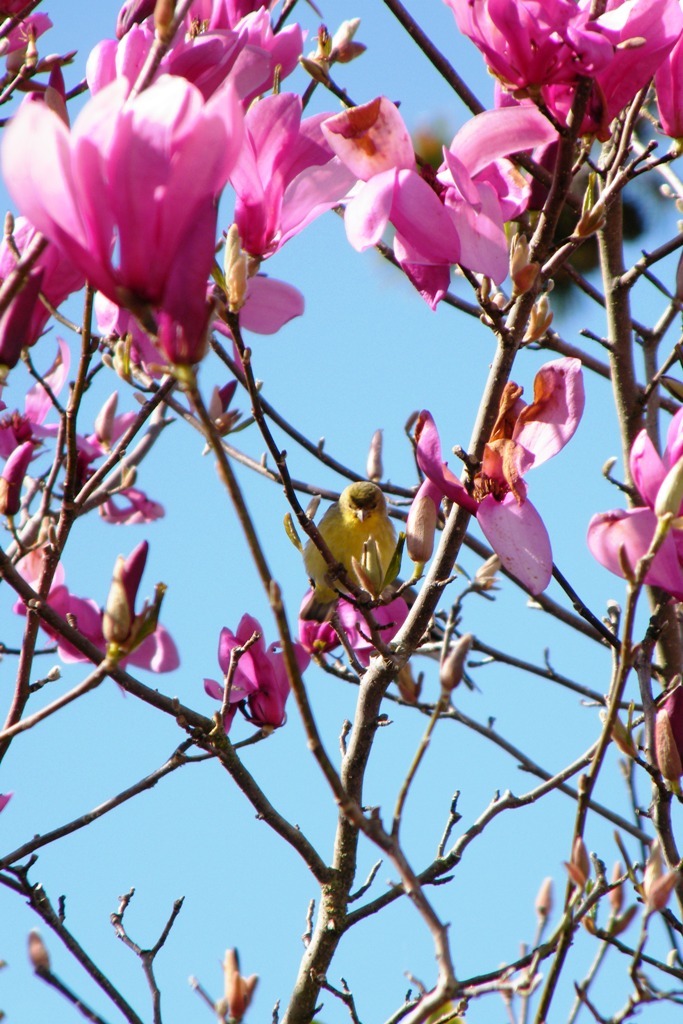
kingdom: Animalia
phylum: Chordata
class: Aves
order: Passeriformes
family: Fringillidae
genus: Spinus
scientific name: Spinus psaltria
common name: Lesser goldfinch
